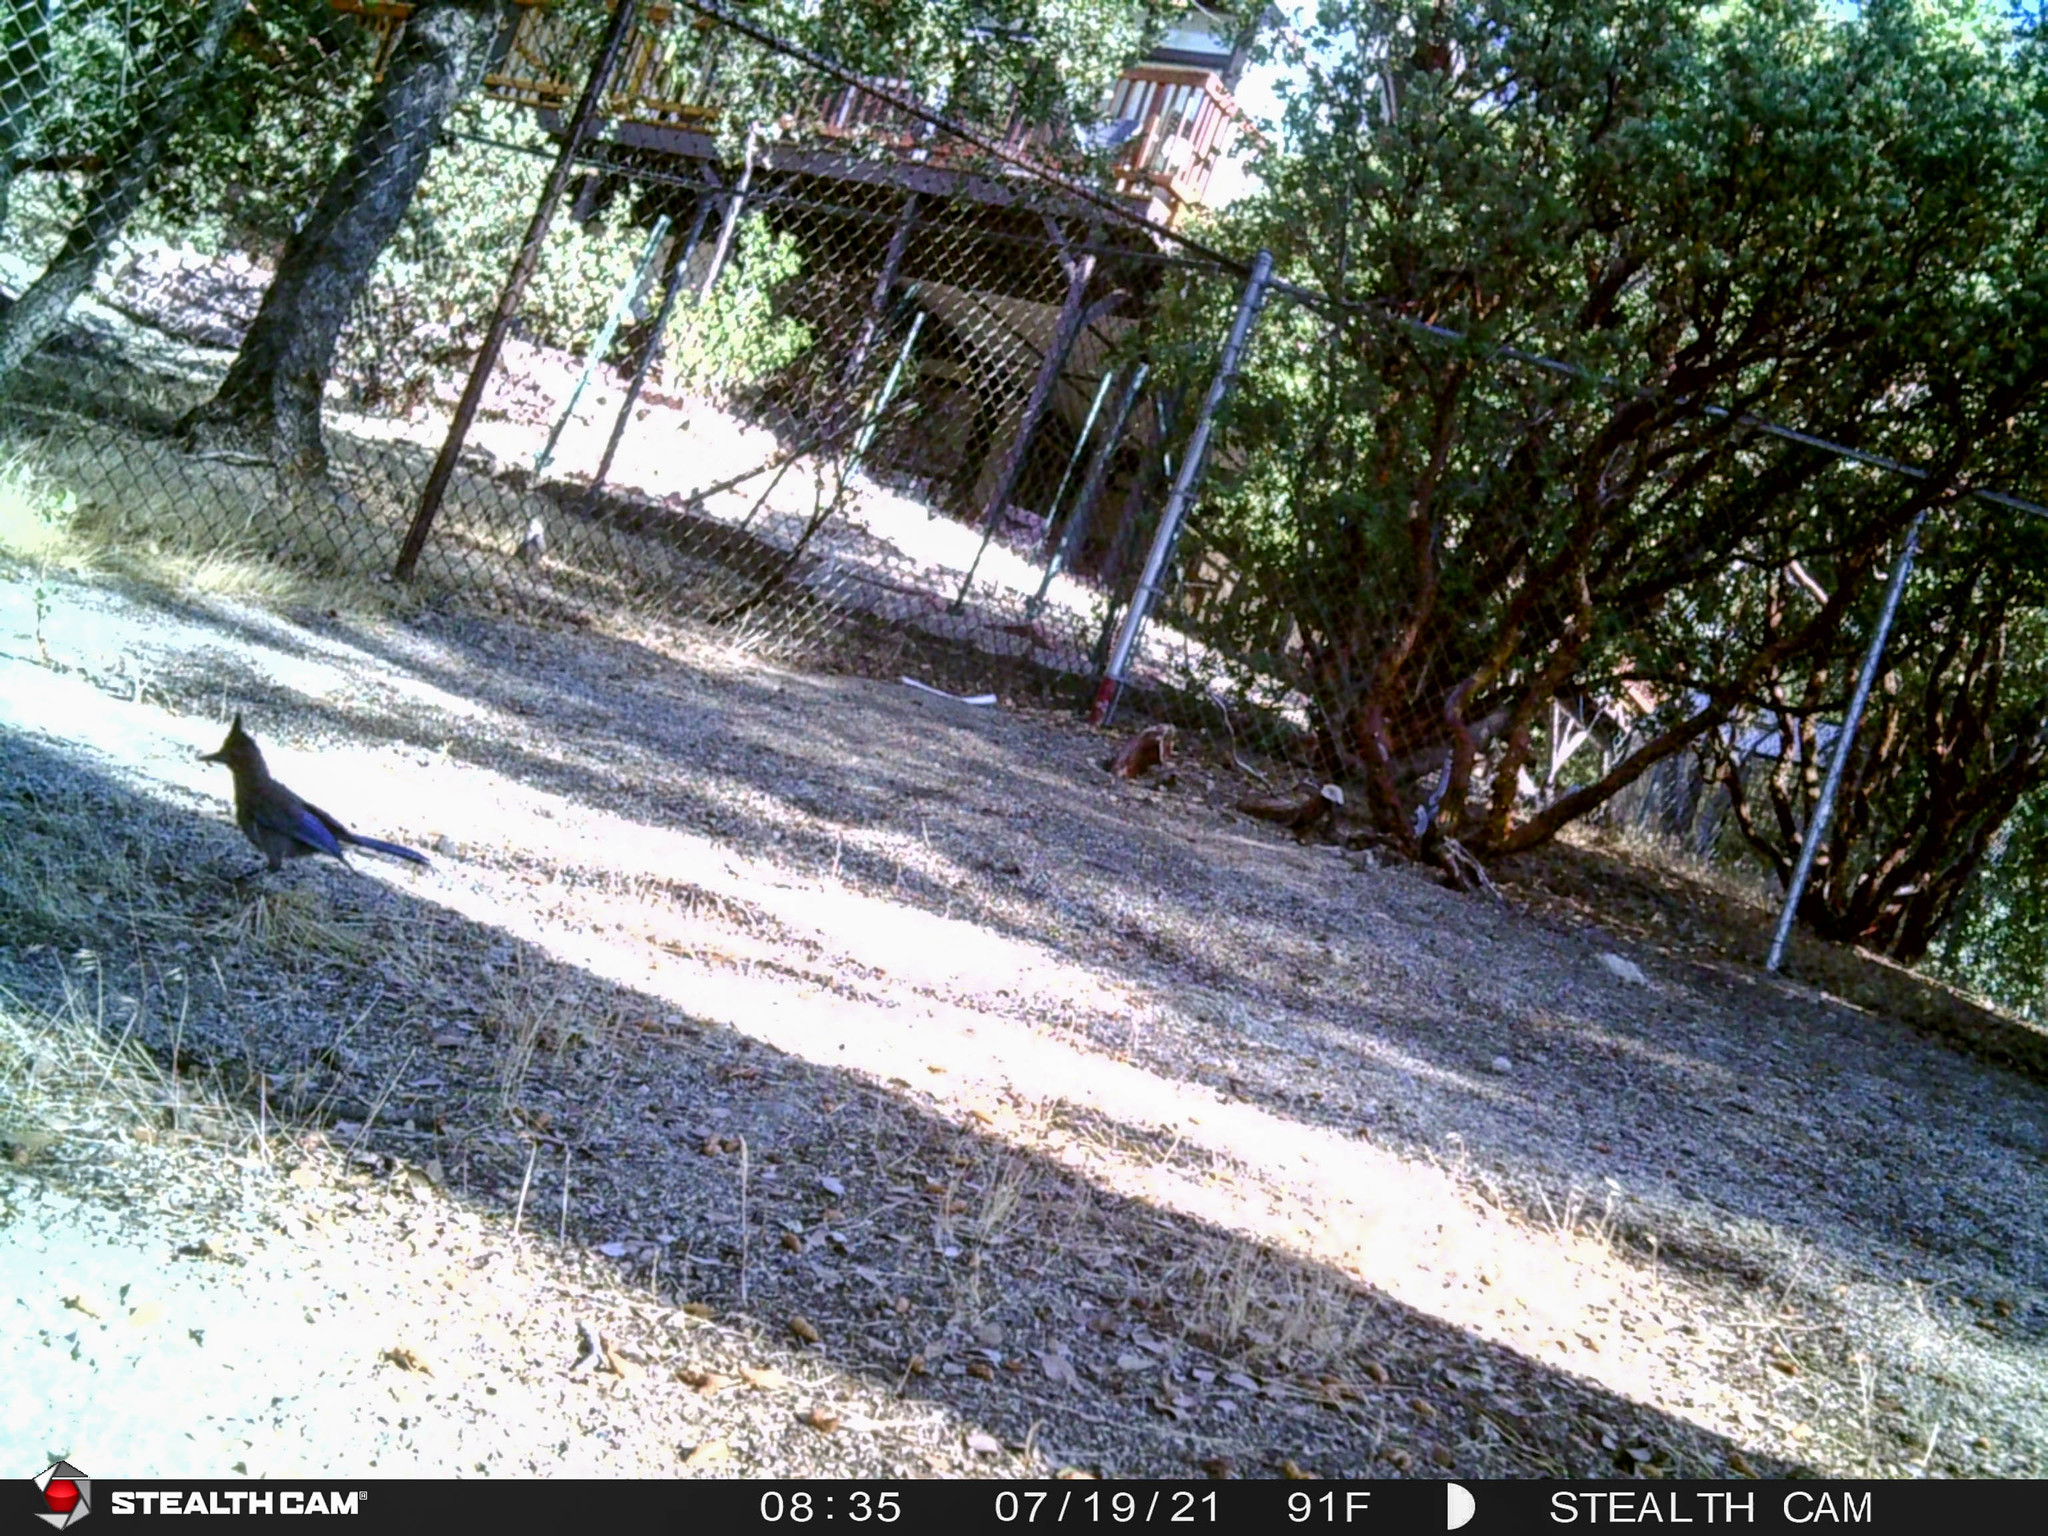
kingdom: Animalia
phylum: Chordata
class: Aves
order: Passeriformes
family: Corvidae
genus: Cyanocitta
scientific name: Cyanocitta stelleri
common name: Steller's jay
